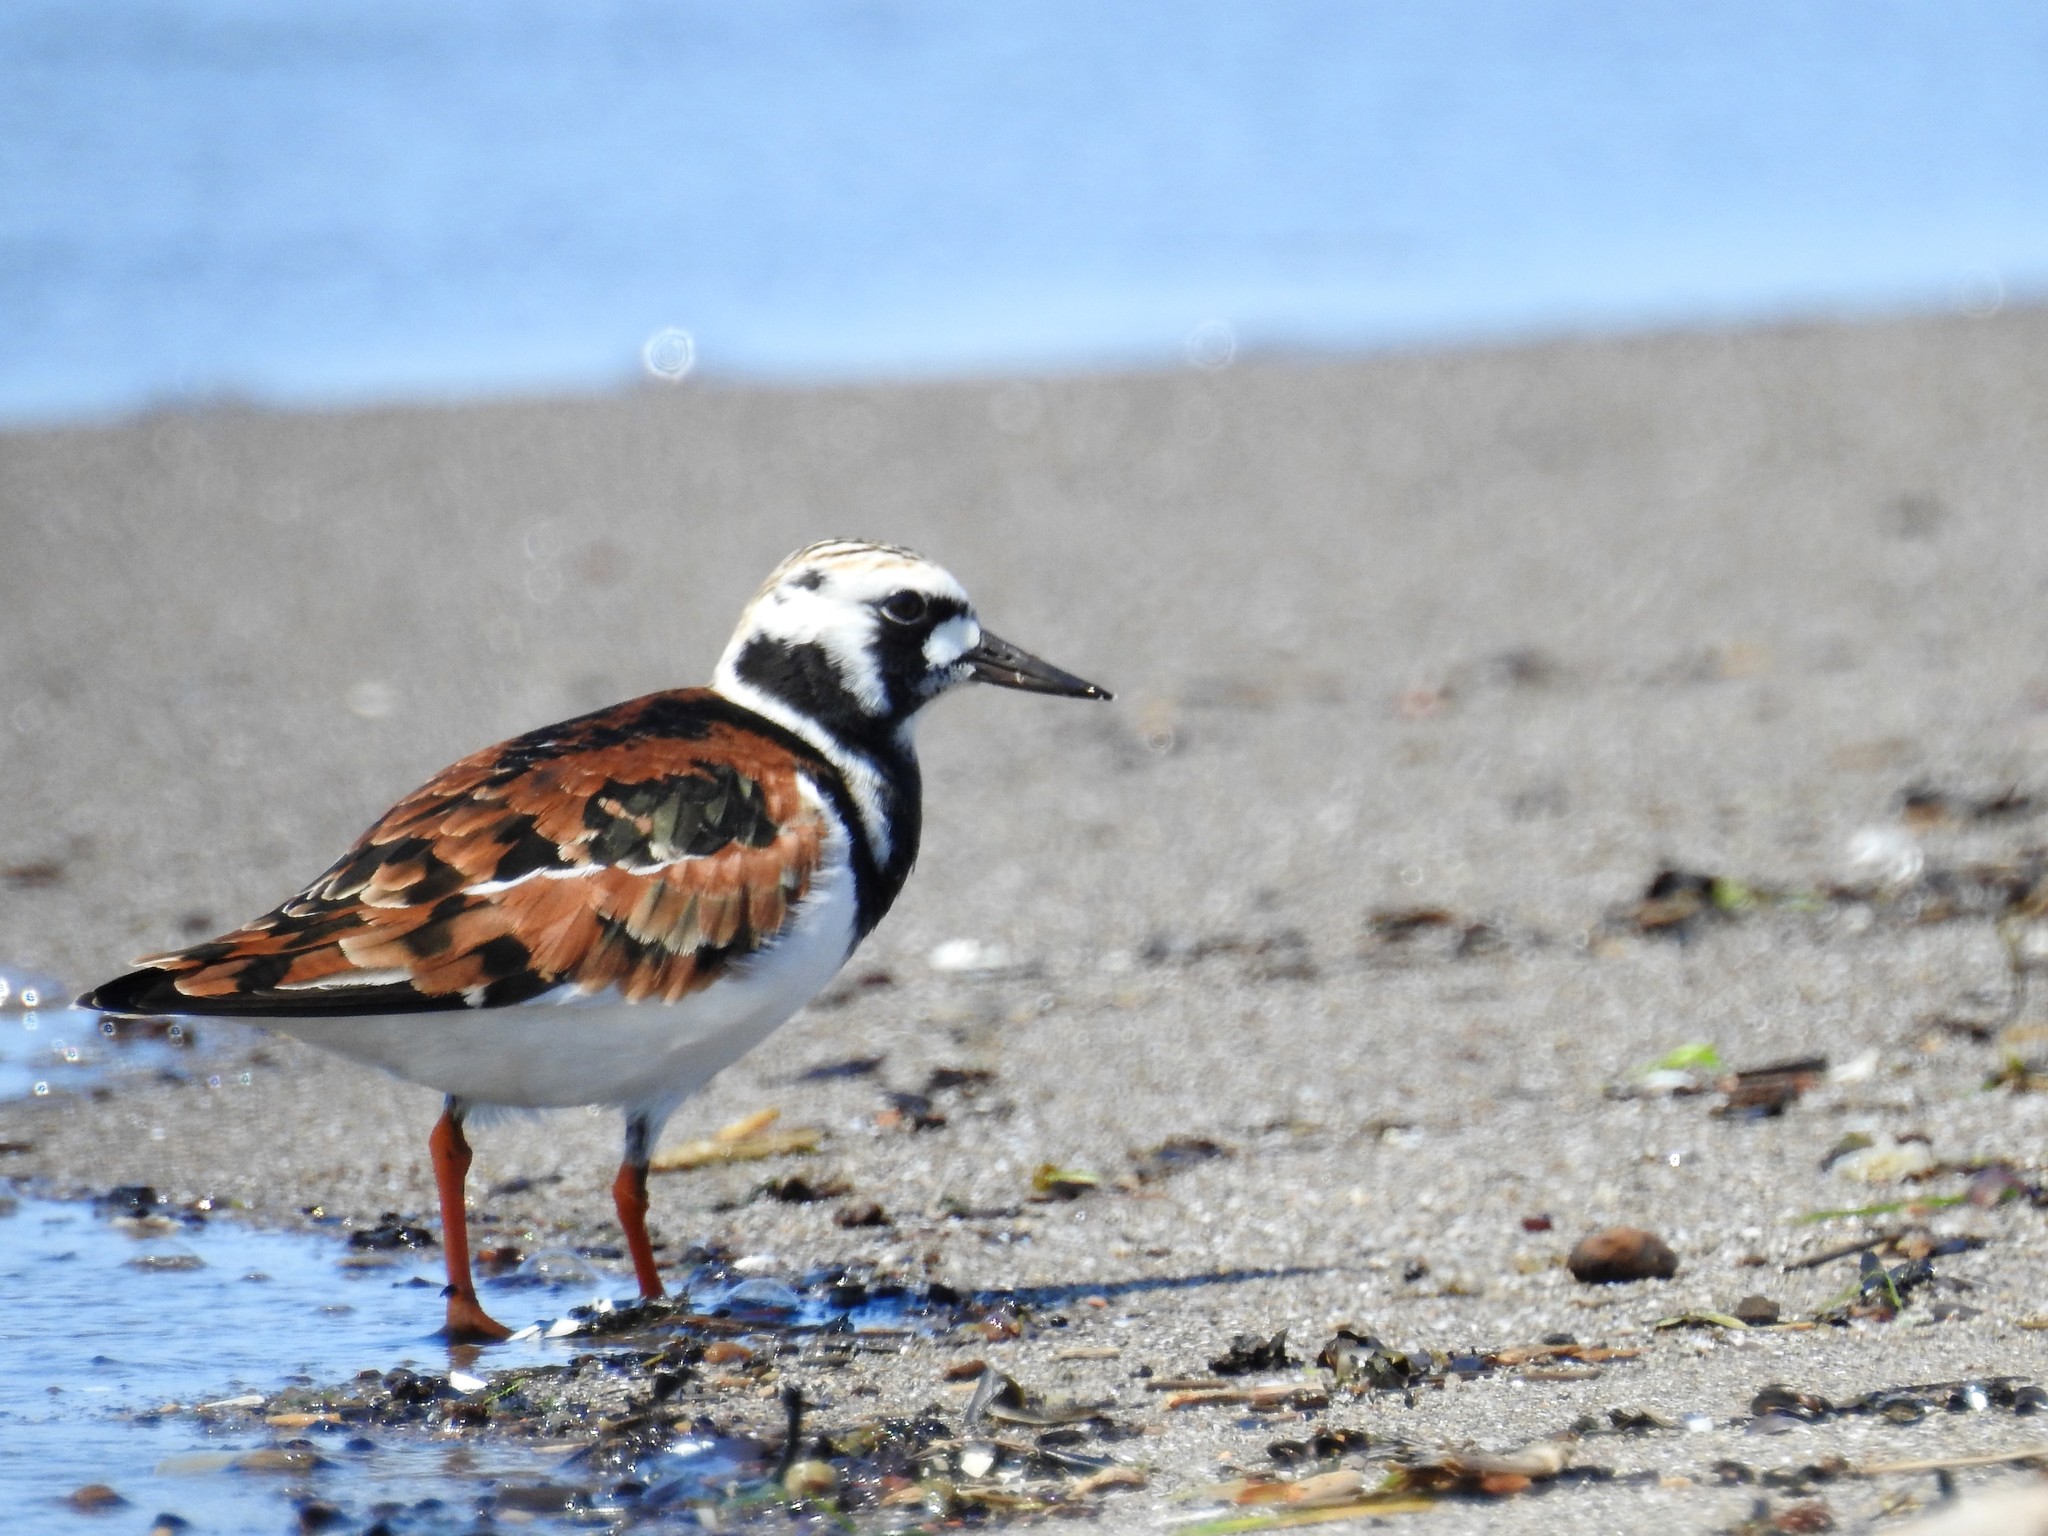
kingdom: Animalia
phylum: Chordata
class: Aves
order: Charadriiformes
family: Scolopacidae
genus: Arenaria
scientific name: Arenaria interpres
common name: Ruddy turnstone
